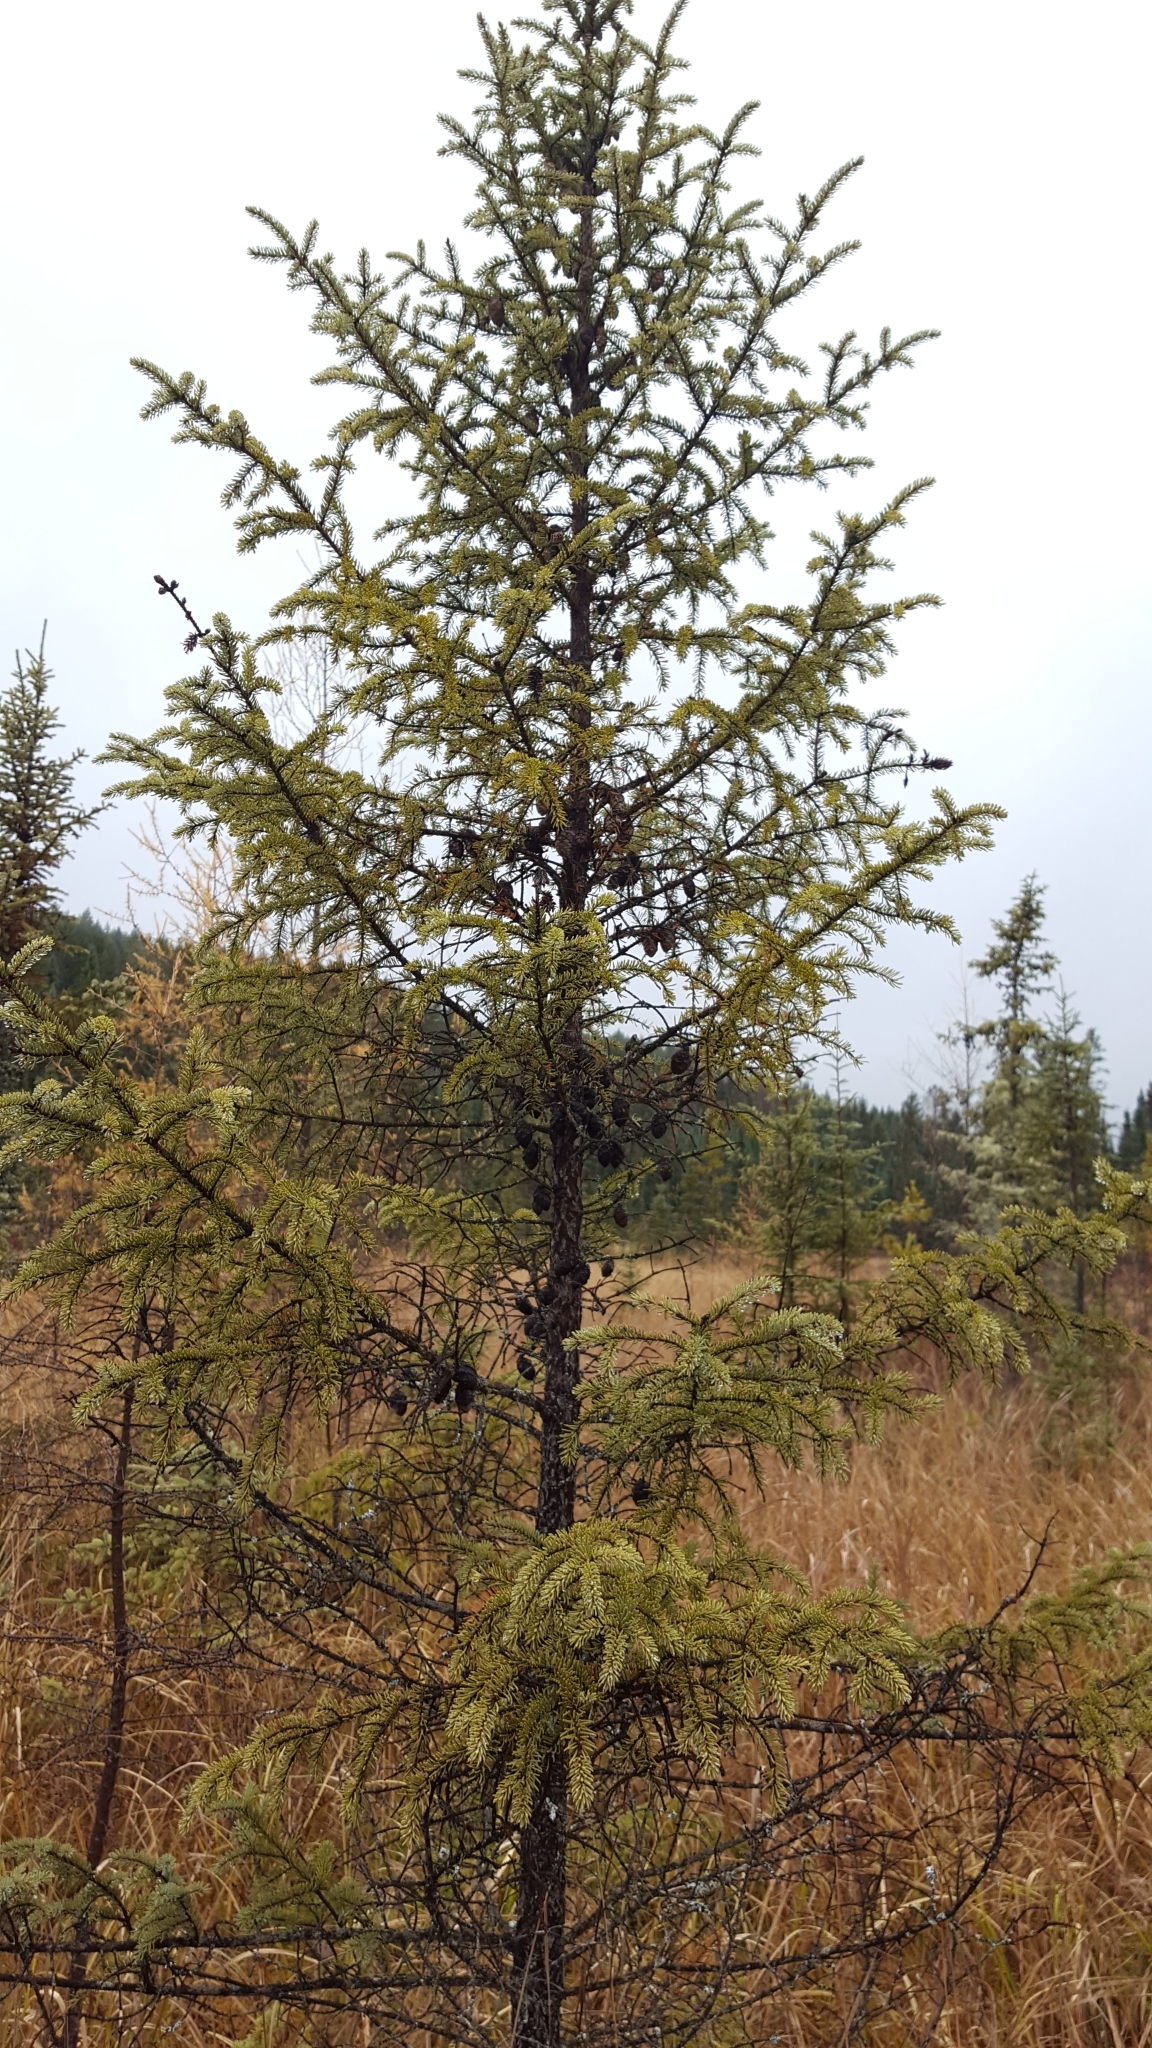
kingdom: Plantae
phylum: Tracheophyta
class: Pinopsida
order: Pinales
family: Pinaceae
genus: Picea
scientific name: Picea mariana
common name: Black spruce
